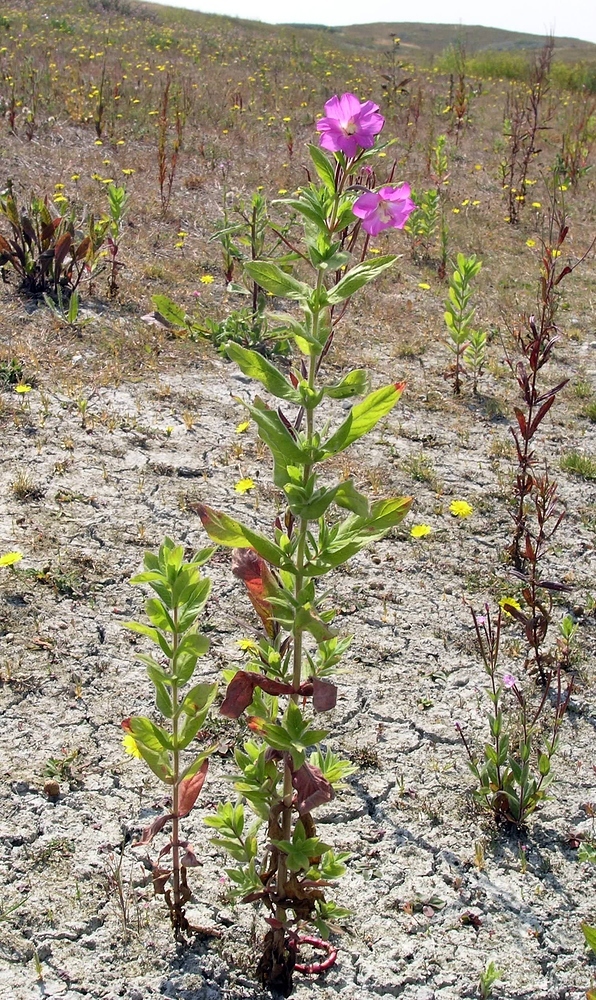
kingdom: Plantae
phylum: Tracheophyta
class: Magnoliopsida
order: Myrtales
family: Onagraceae
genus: Epilobium
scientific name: Epilobium hirsutum
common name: Great willowherb
